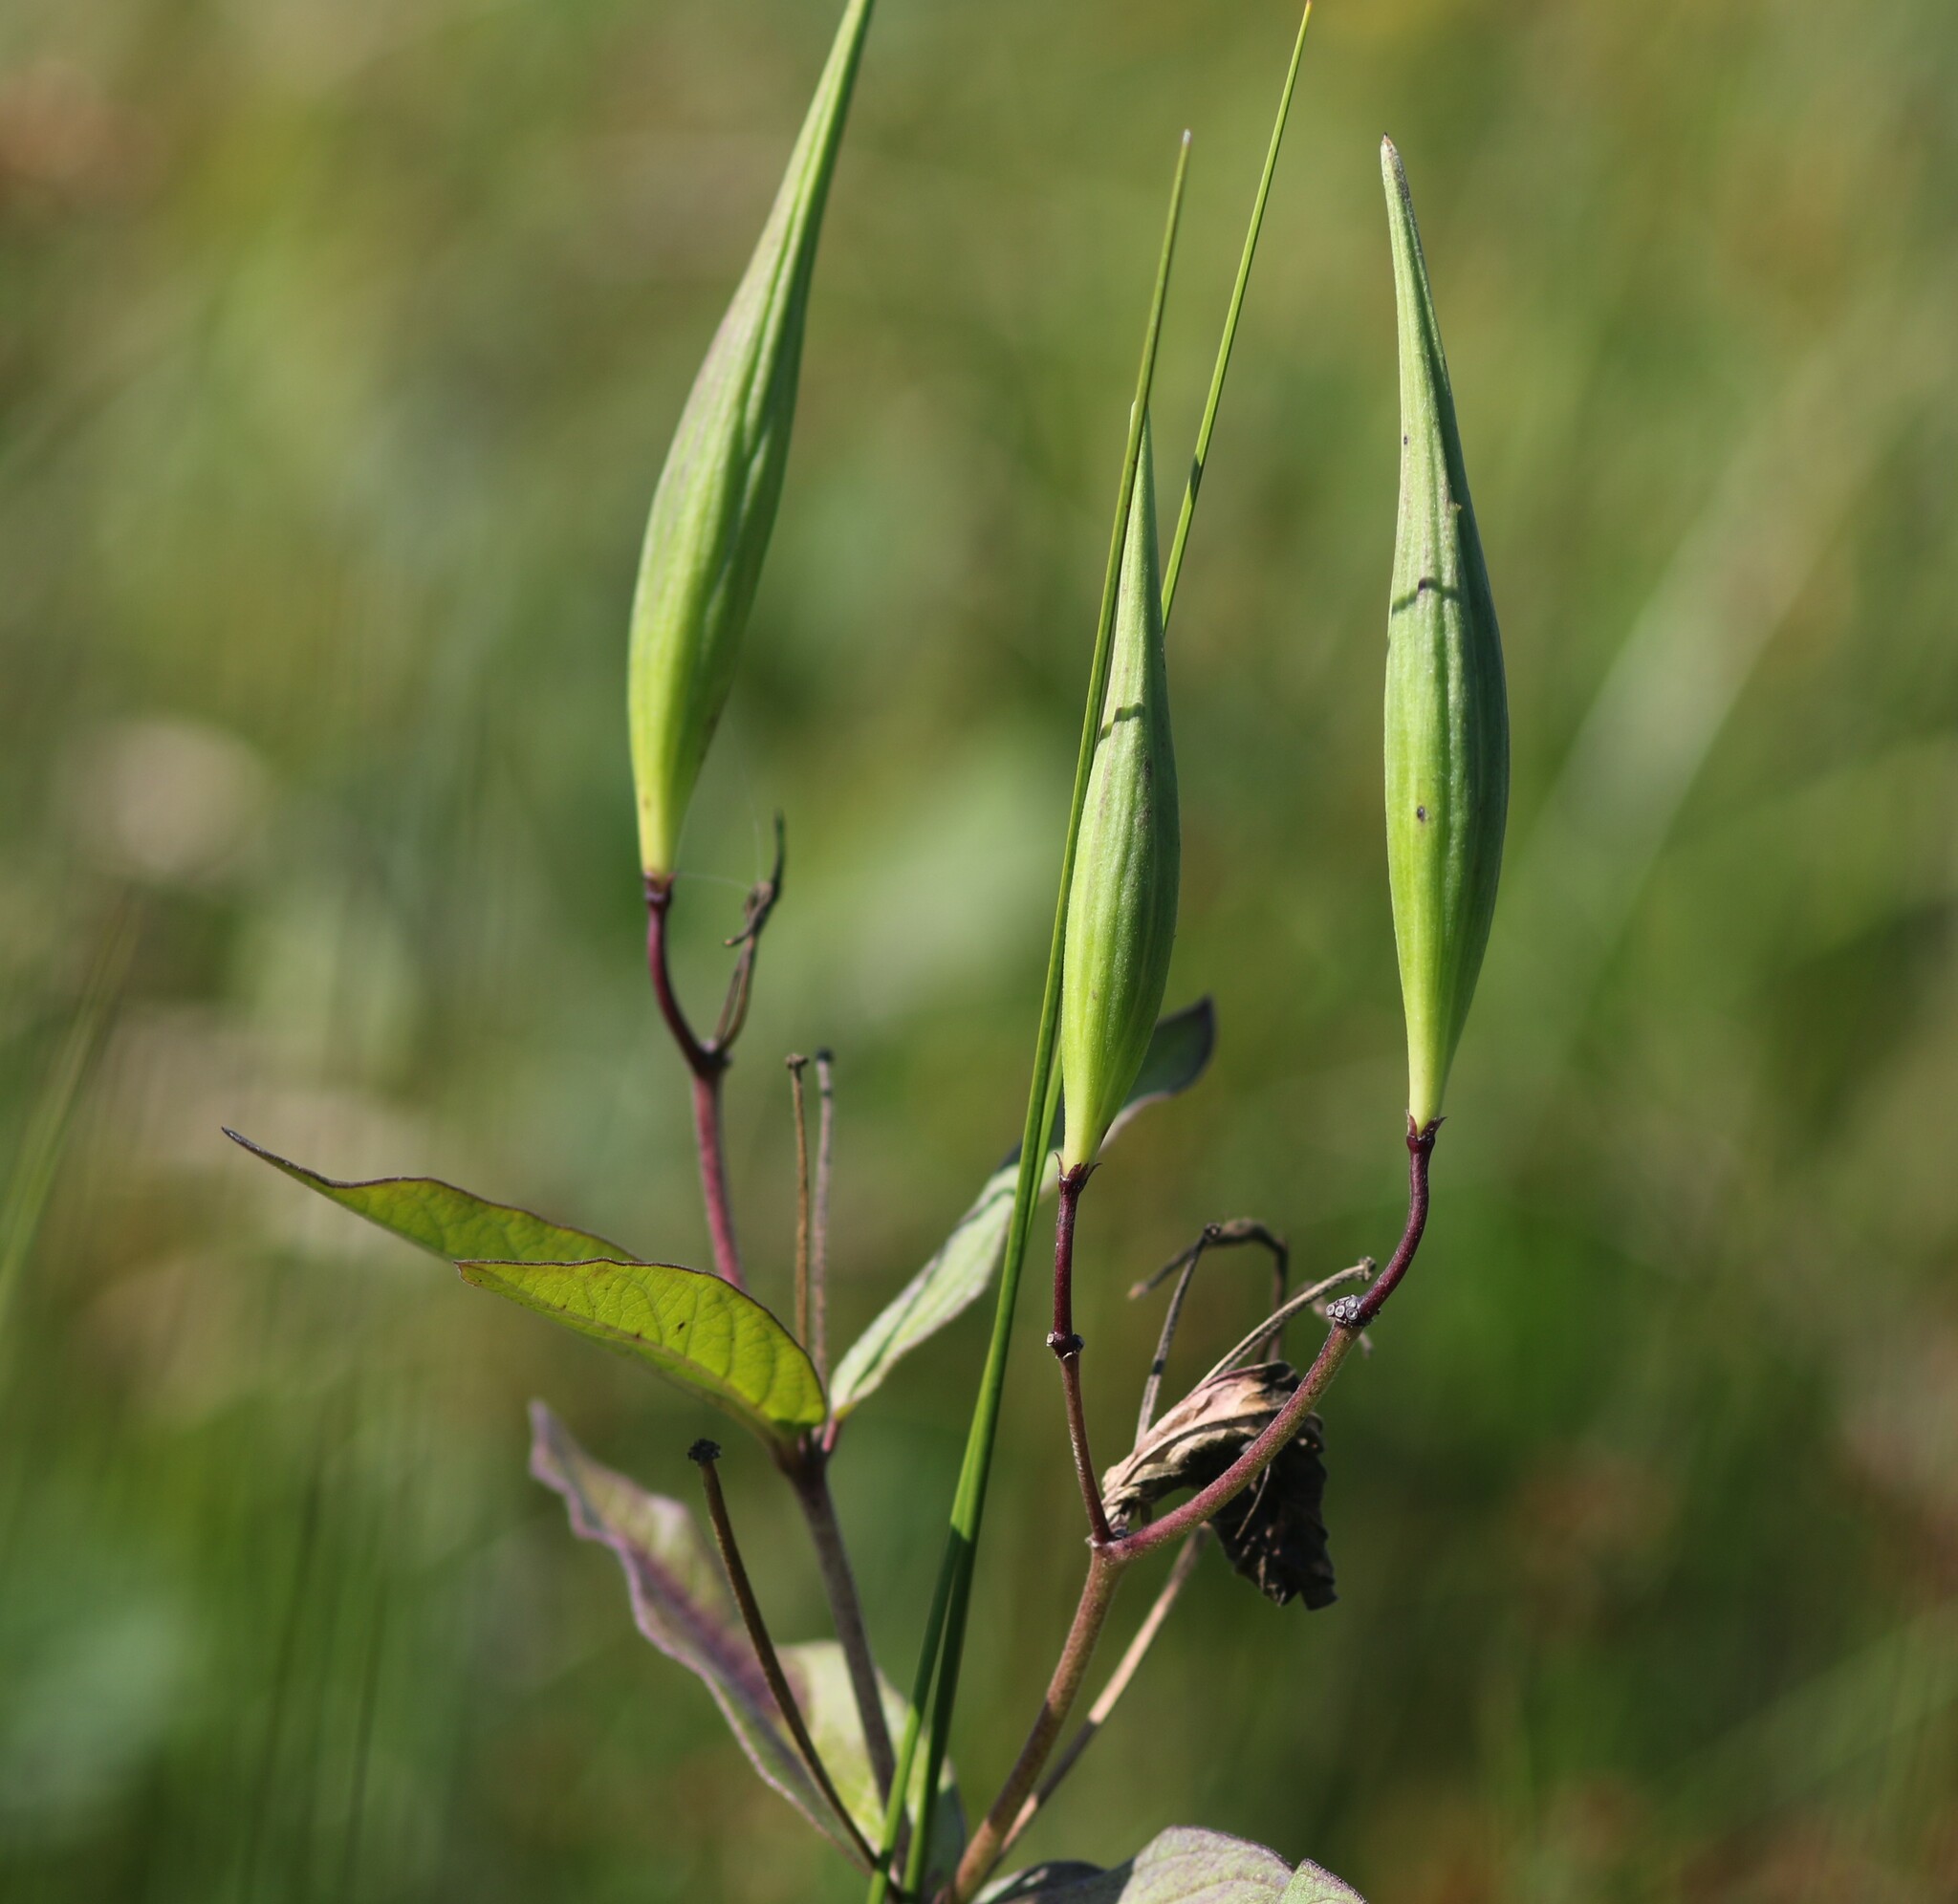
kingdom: Plantae
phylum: Tracheophyta
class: Magnoliopsida
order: Gentianales
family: Apocynaceae
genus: Asclepias
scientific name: Asclepias incarnata
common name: Swamp milkweed
